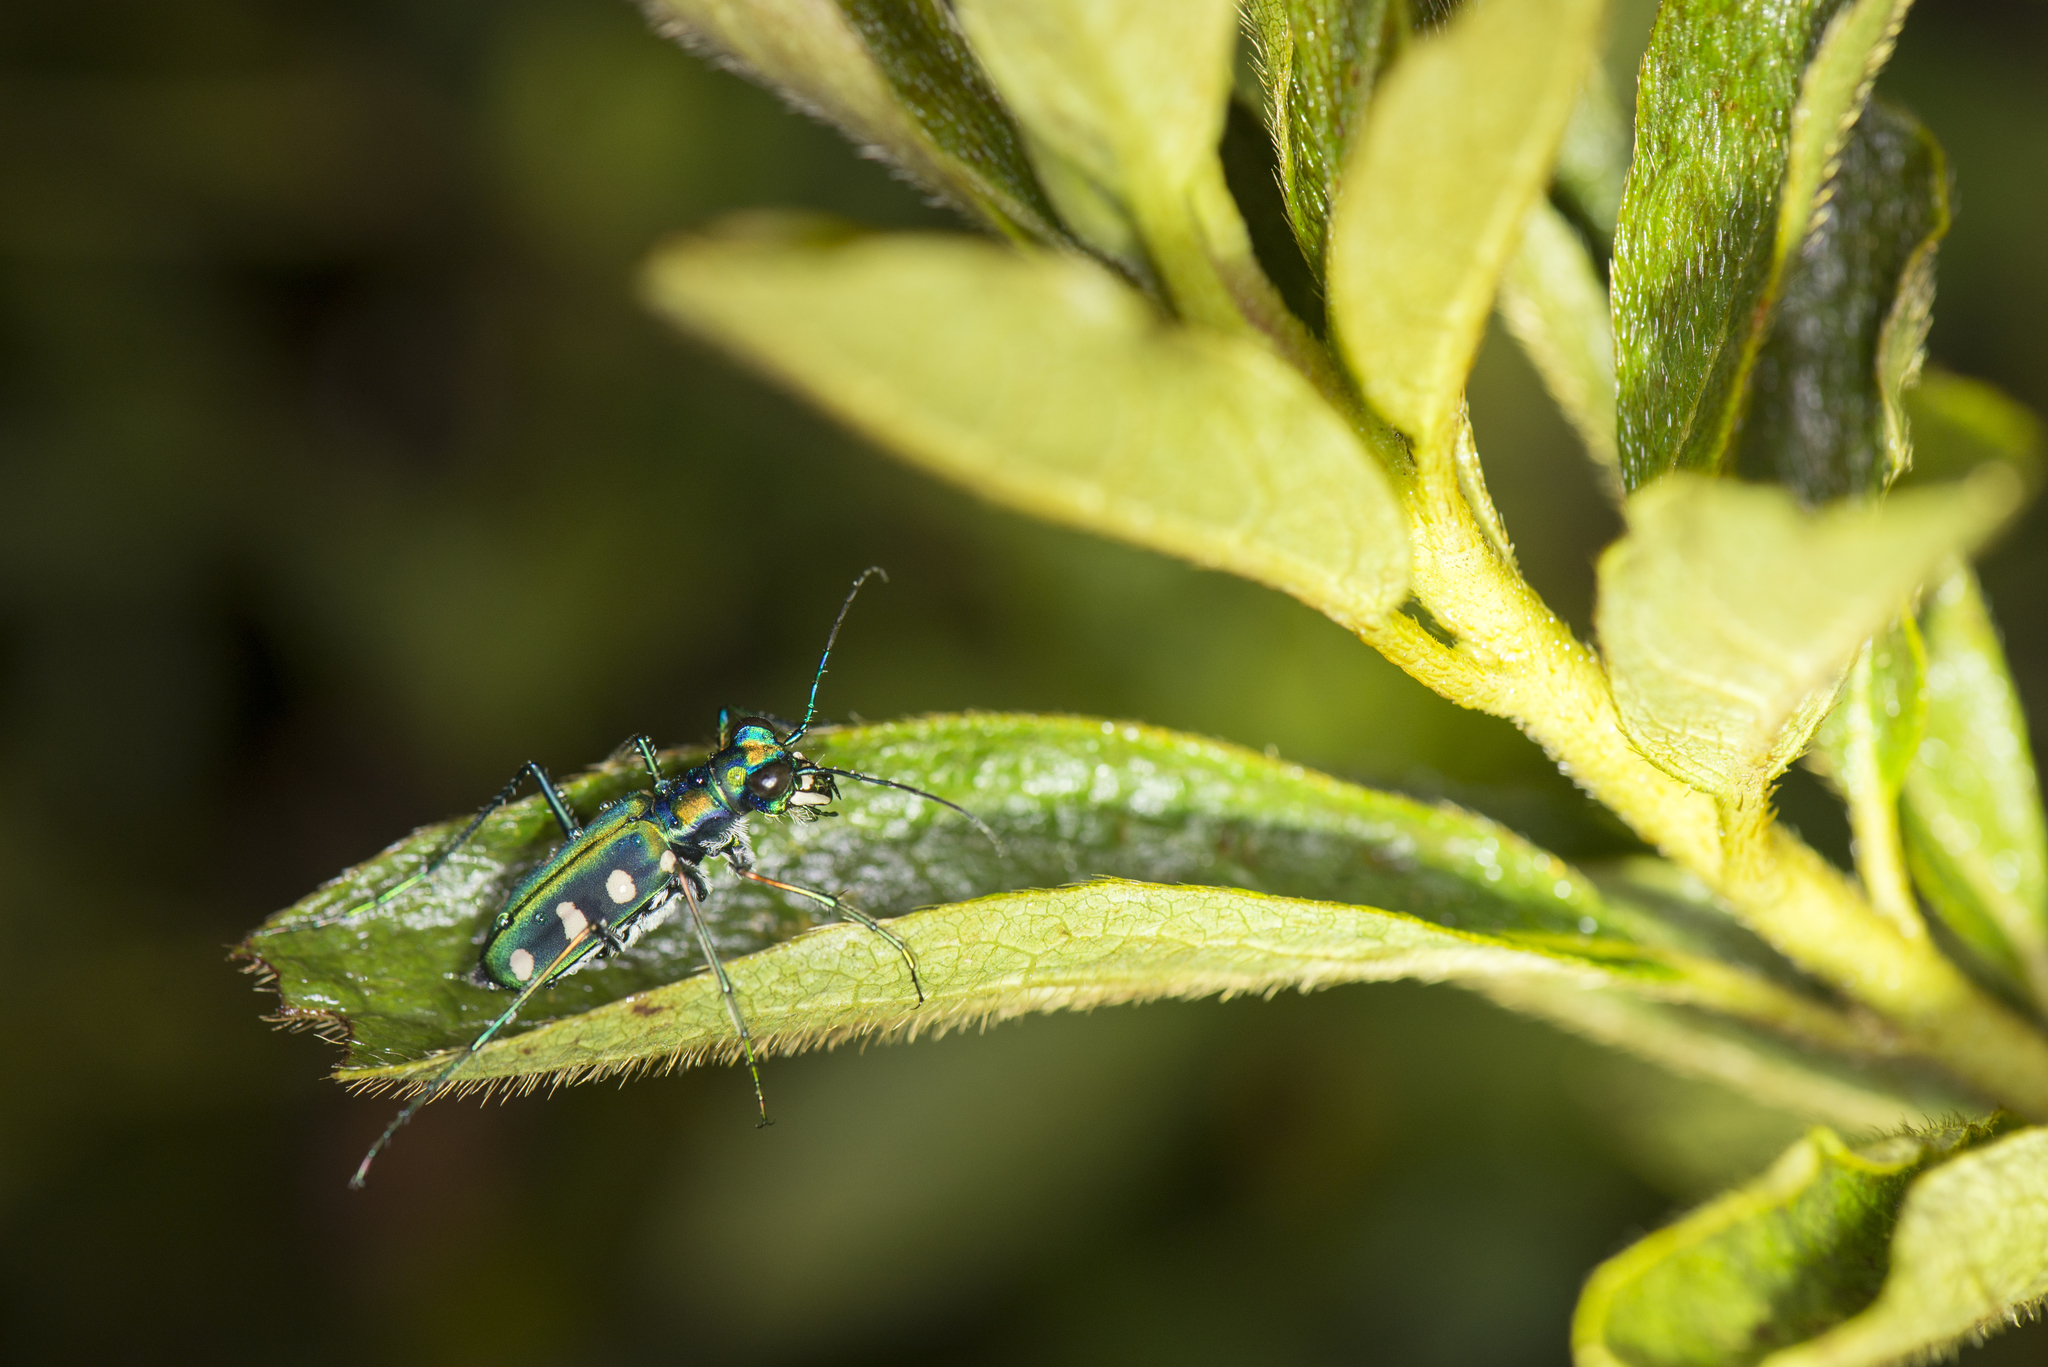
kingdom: Animalia
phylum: Arthropoda
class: Insecta
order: Coleoptera
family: Carabidae
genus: Cicindela
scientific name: Cicindela batesi
